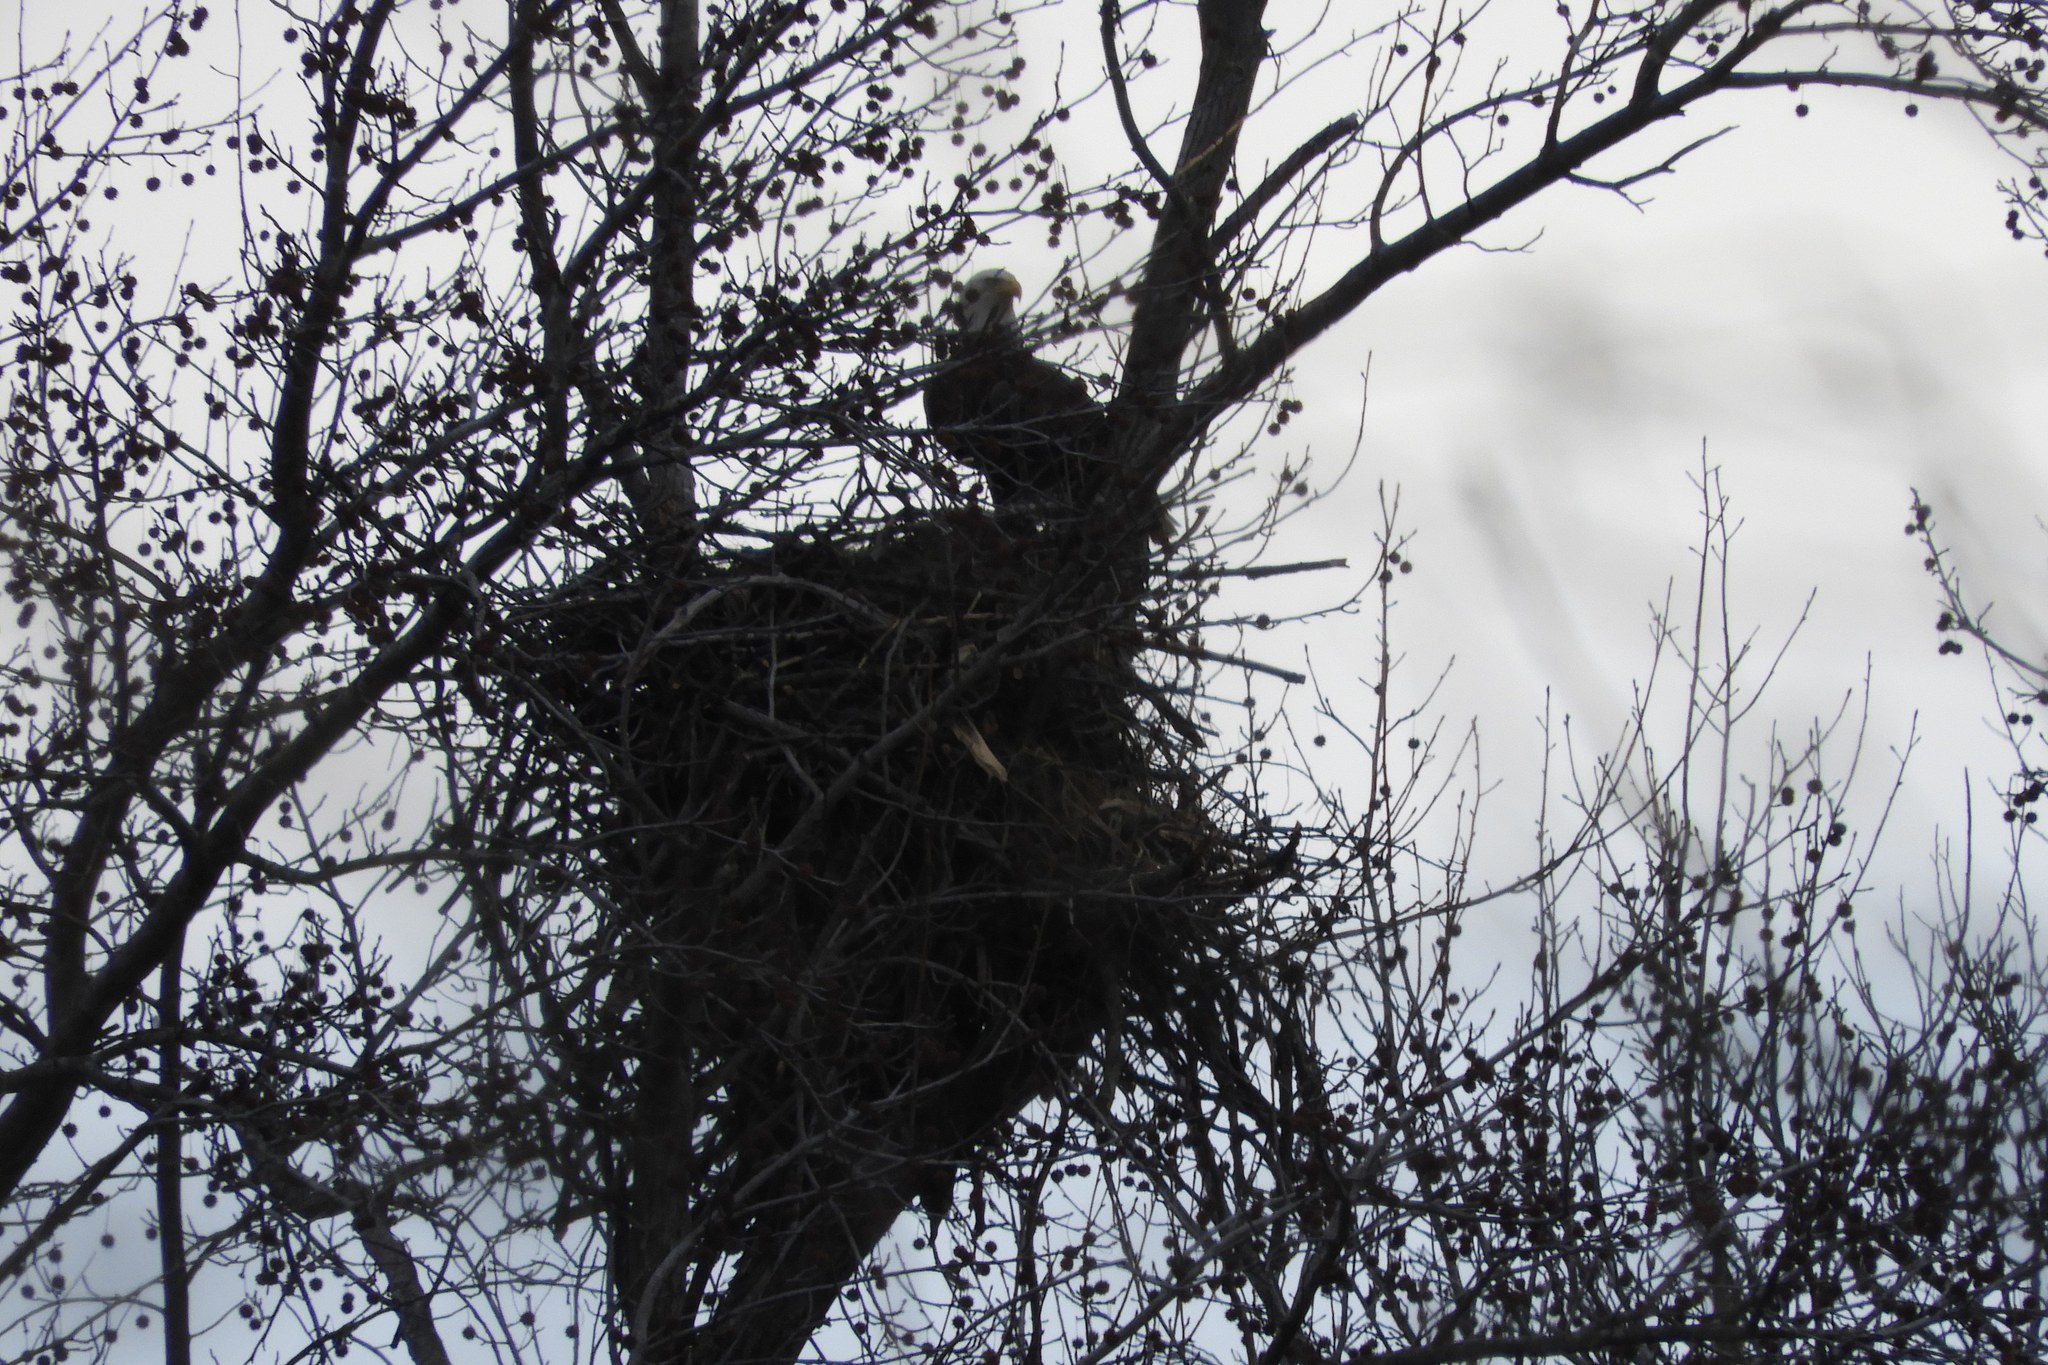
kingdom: Animalia
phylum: Chordata
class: Aves
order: Accipitriformes
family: Accipitridae
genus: Haliaeetus
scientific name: Haliaeetus leucocephalus
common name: Bald eagle
